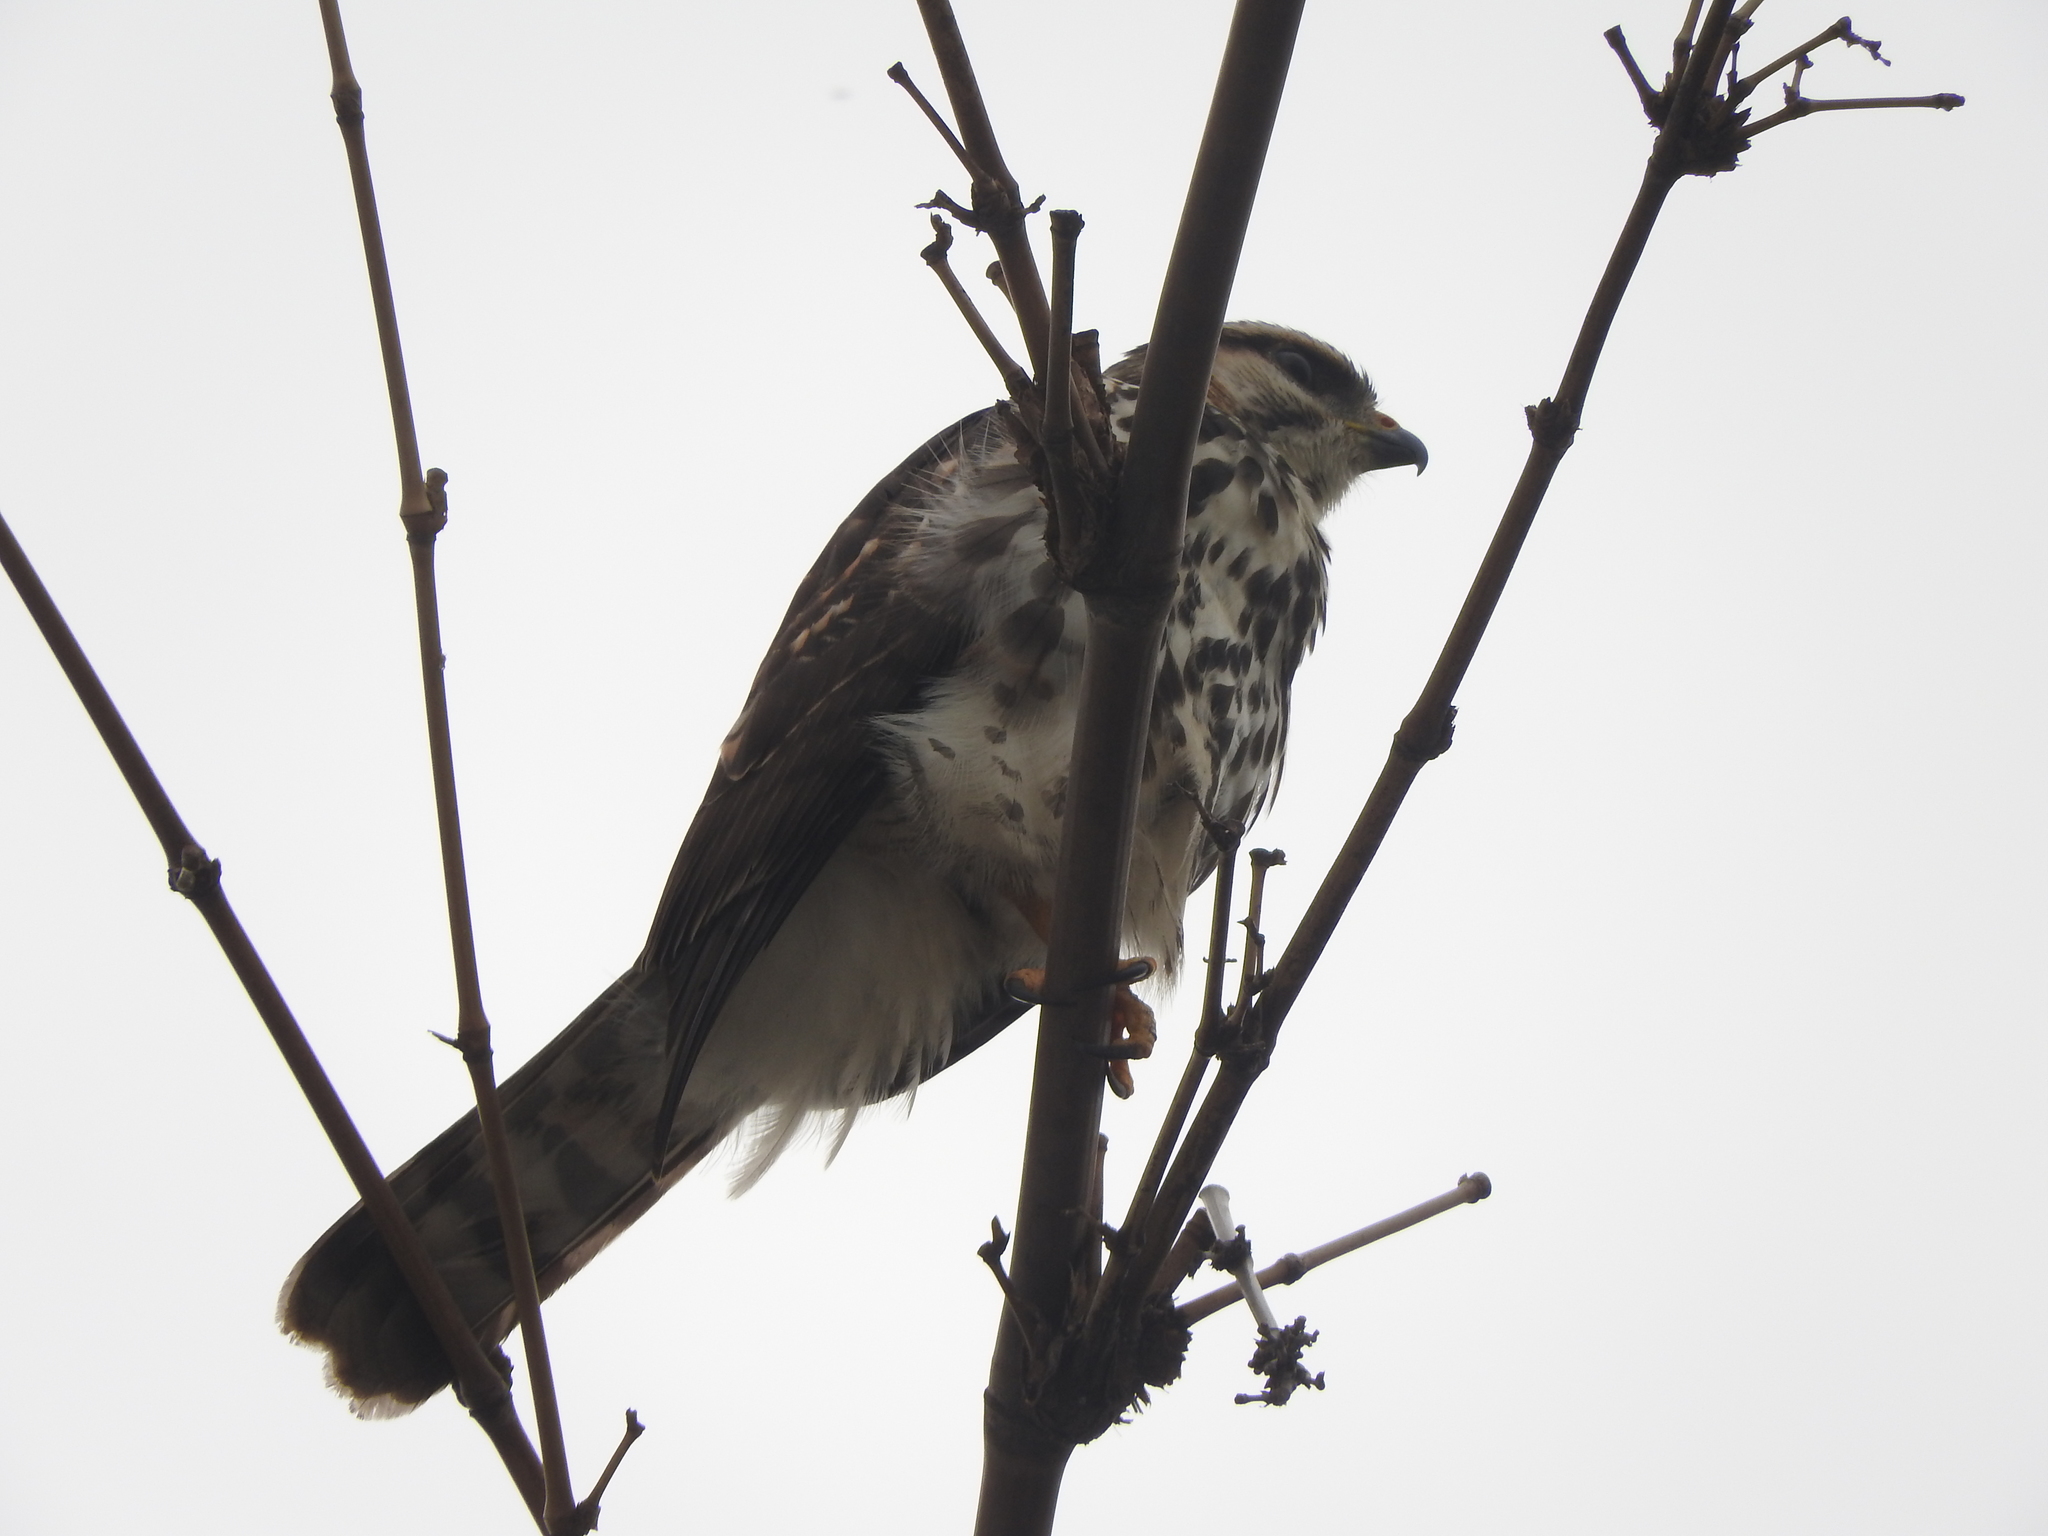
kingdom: Animalia
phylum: Chordata
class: Aves
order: Accipitriformes
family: Accipitridae
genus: Buteo
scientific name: Buteo nitidus
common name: Grey-lined hawk
